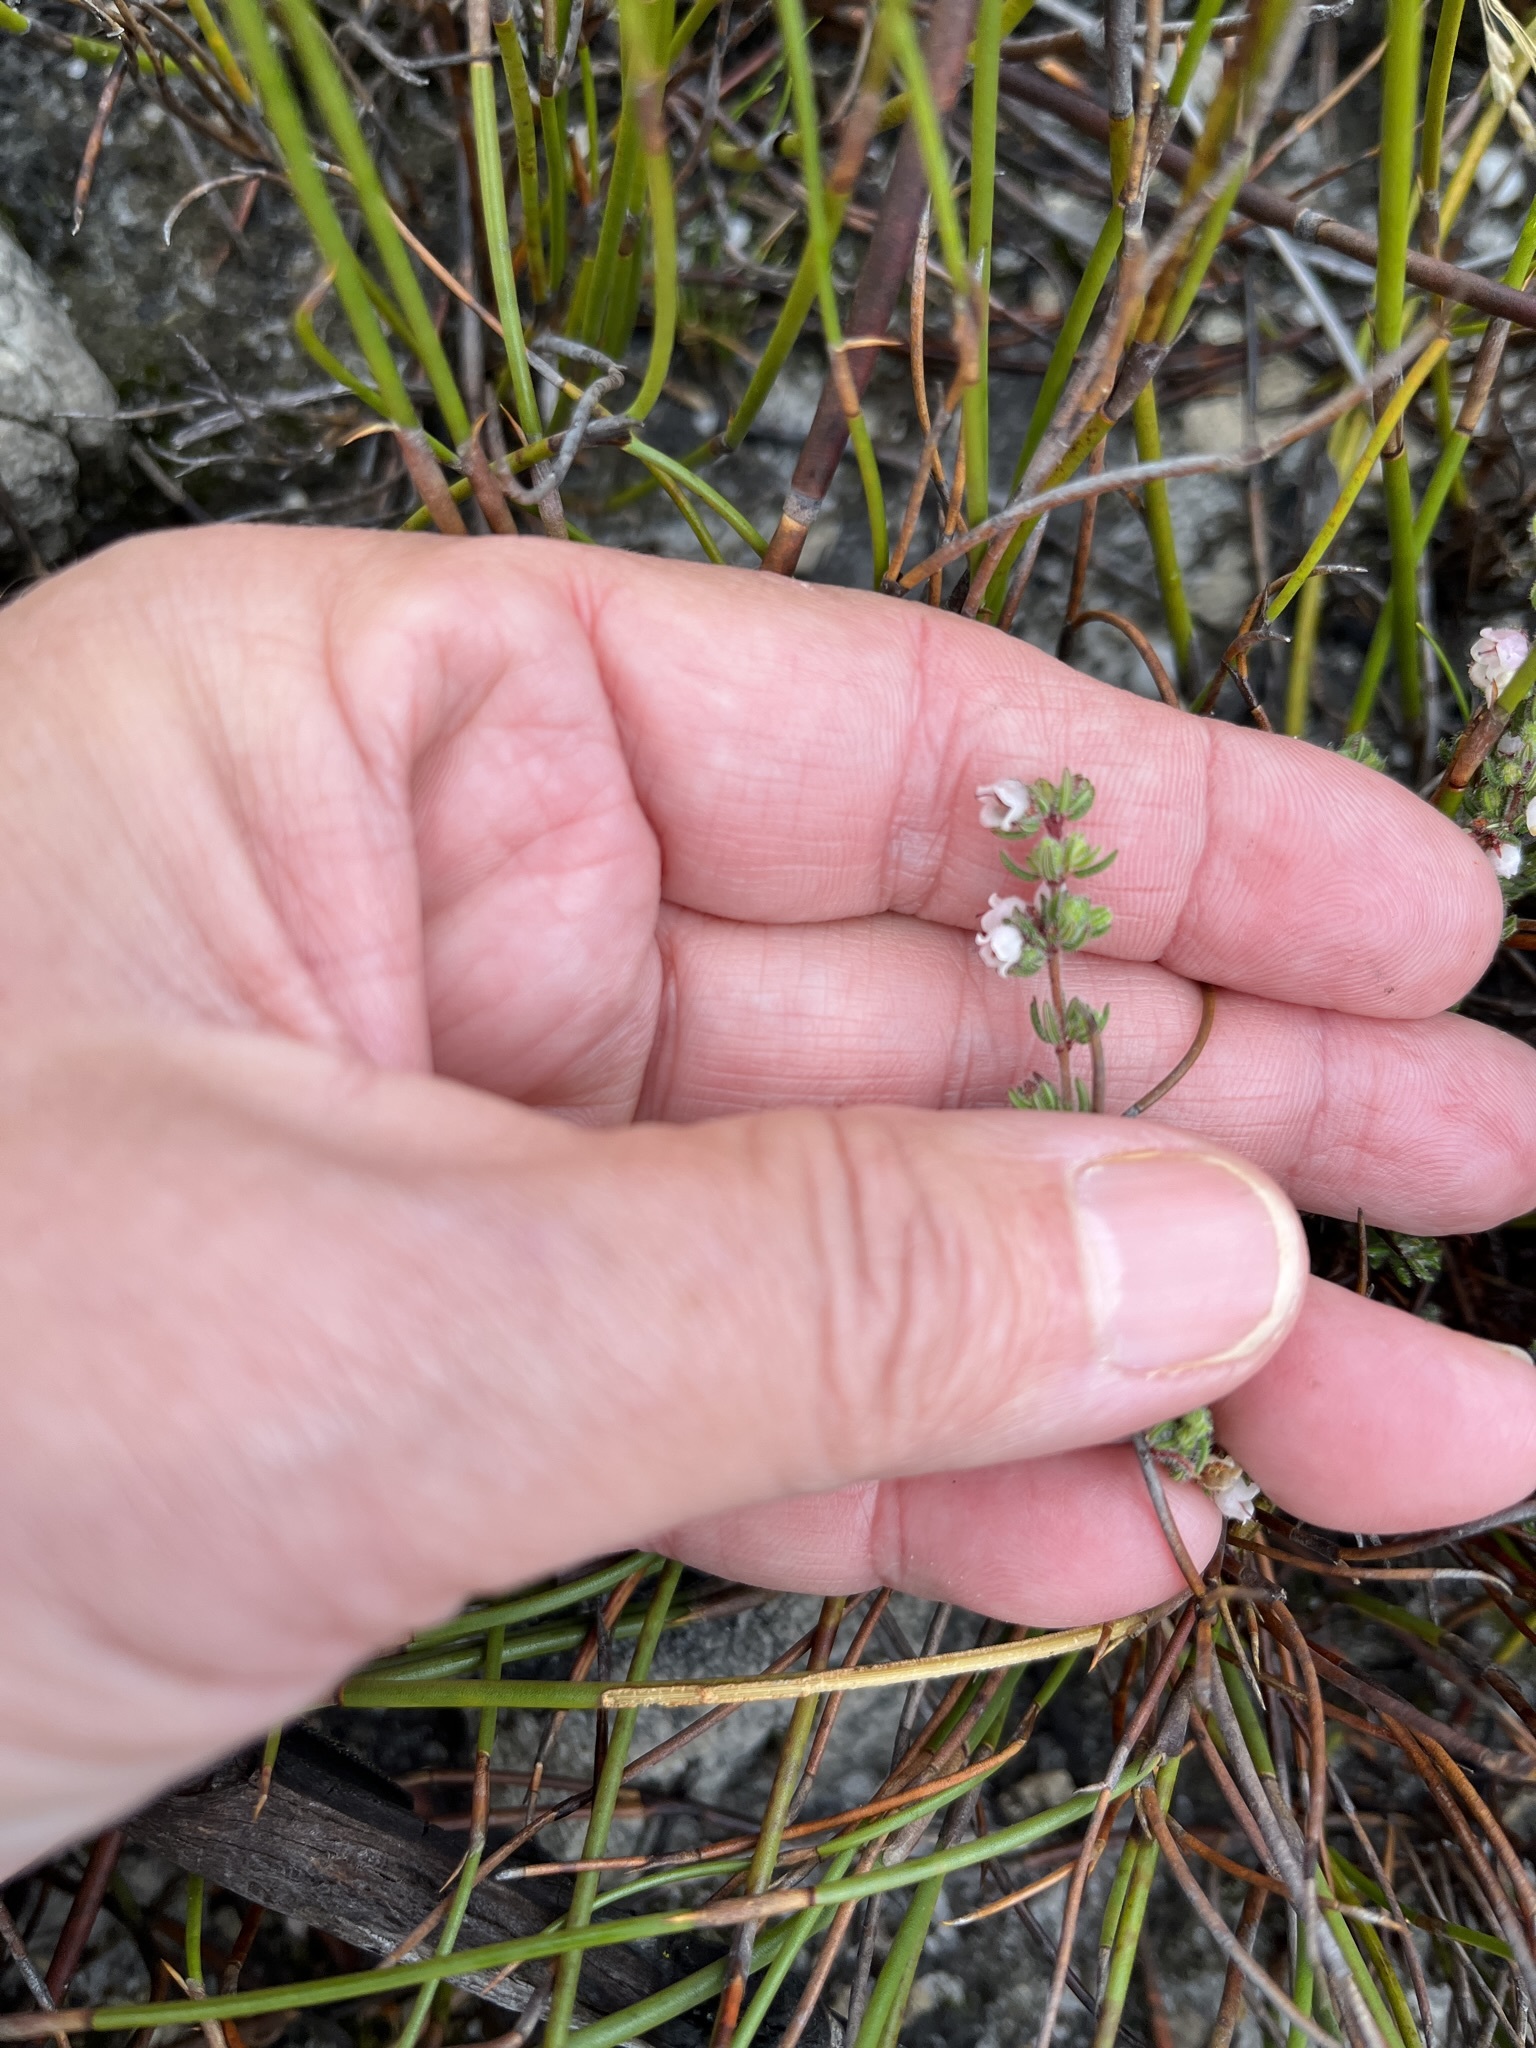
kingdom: Plantae
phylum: Tracheophyta
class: Magnoliopsida
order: Ericales
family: Ericaceae
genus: Erica
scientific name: Erica distorta
